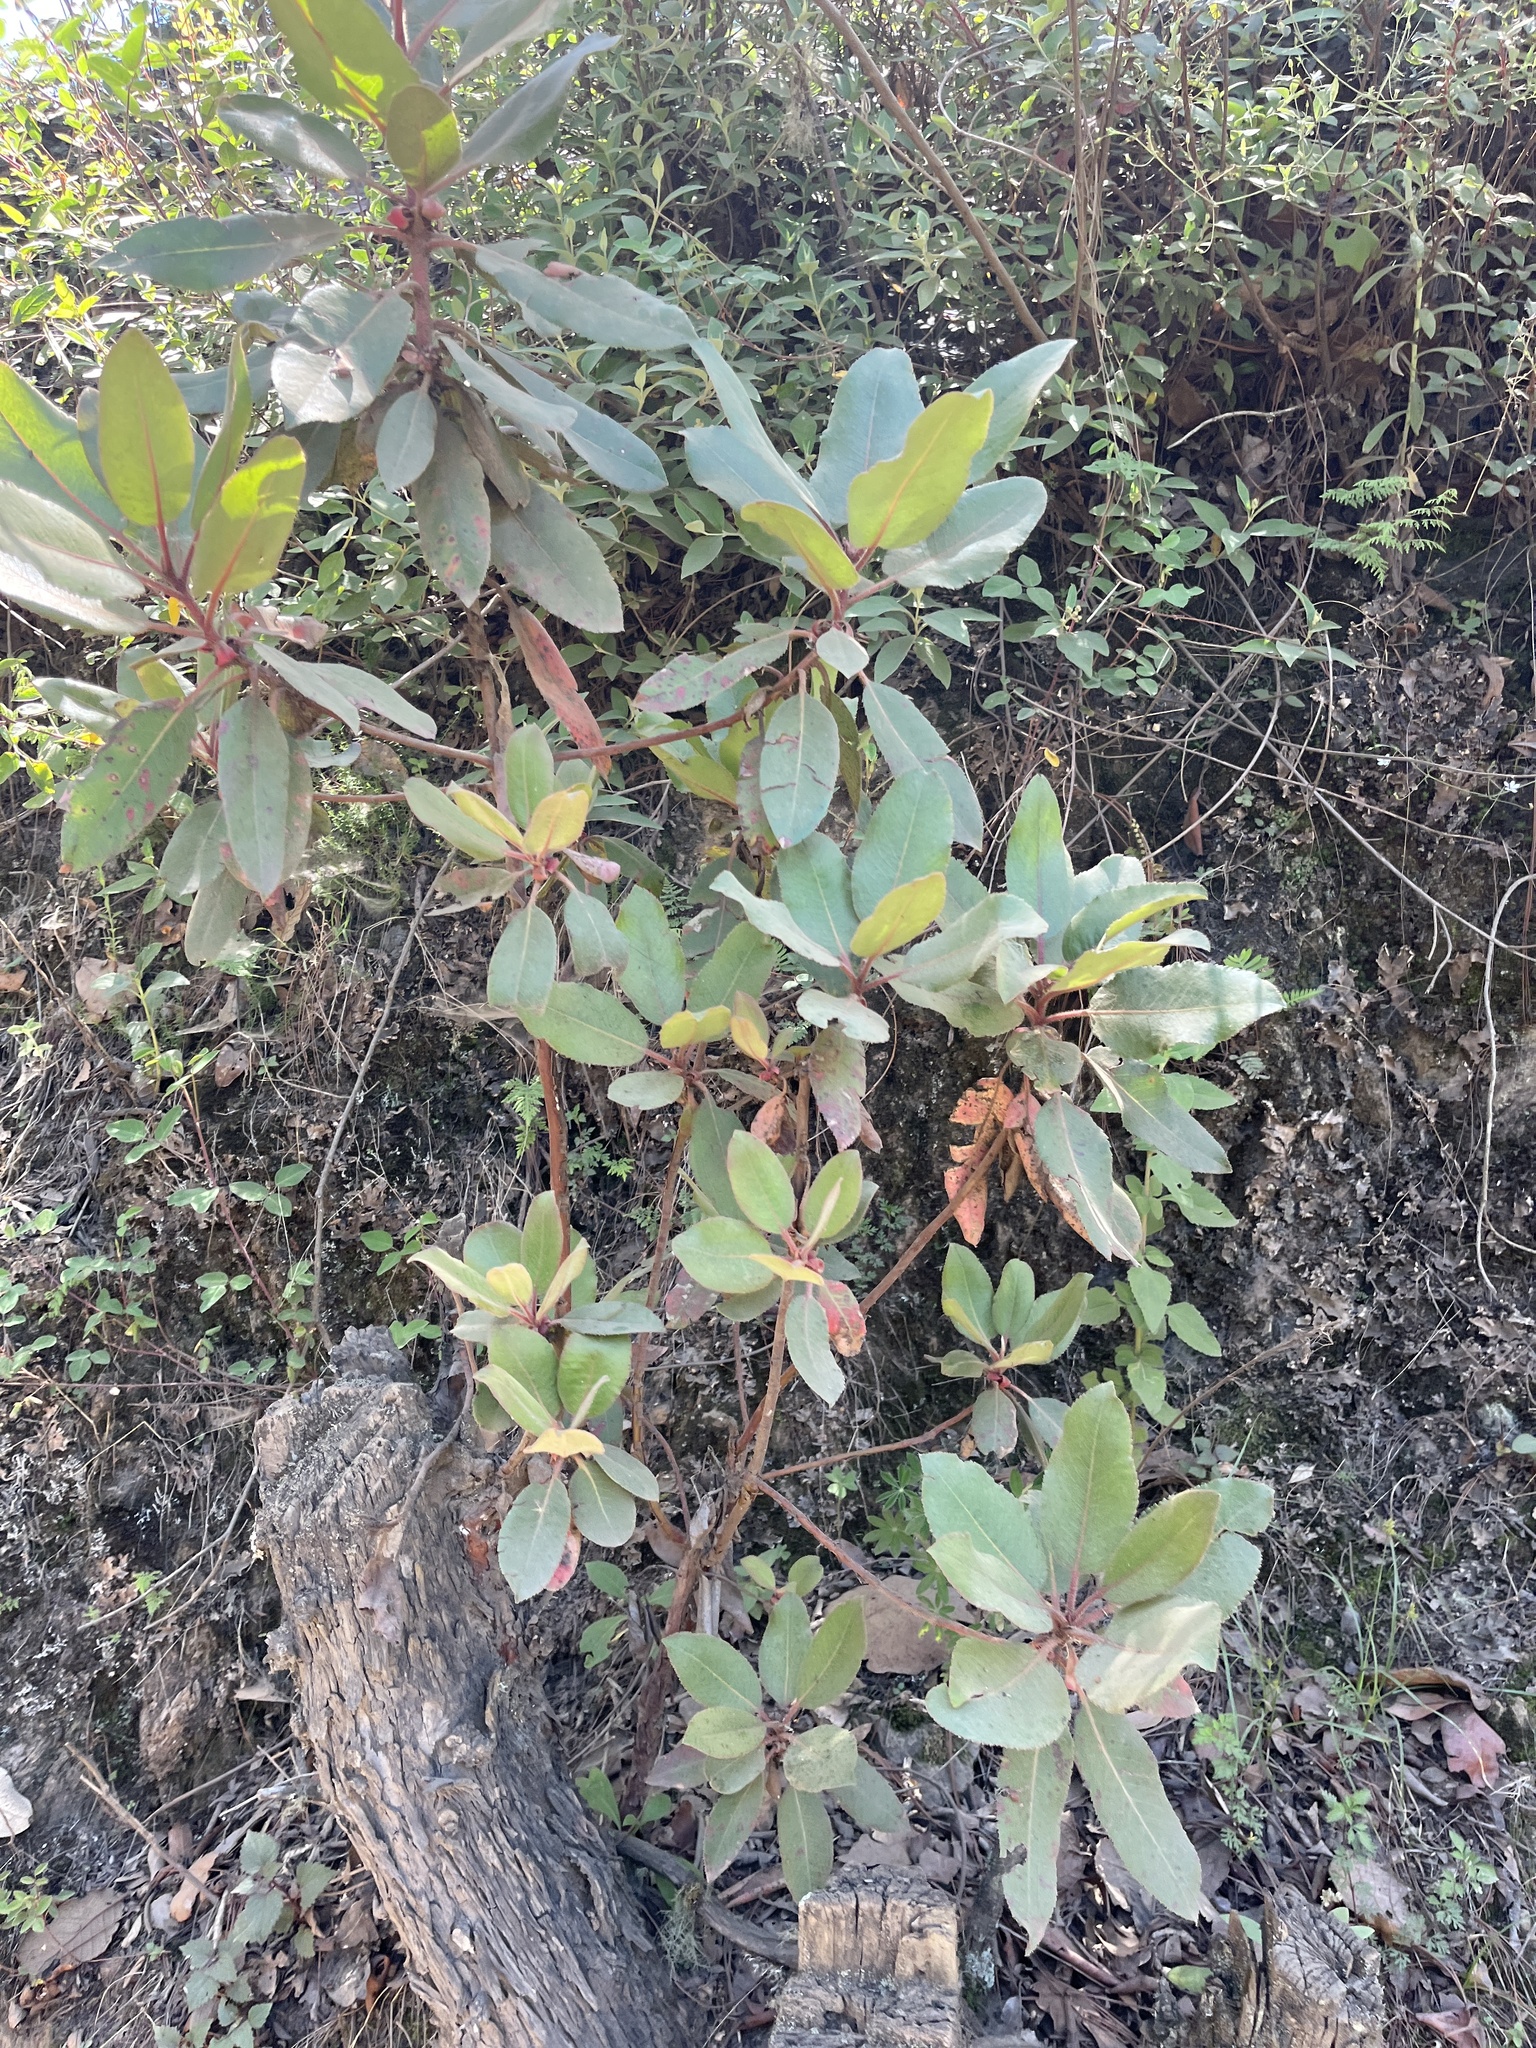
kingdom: Plantae
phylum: Tracheophyta
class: Magnoliopsida
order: Ericales
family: Ericaceae
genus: Arbutus
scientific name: Arbutus xalapensis
